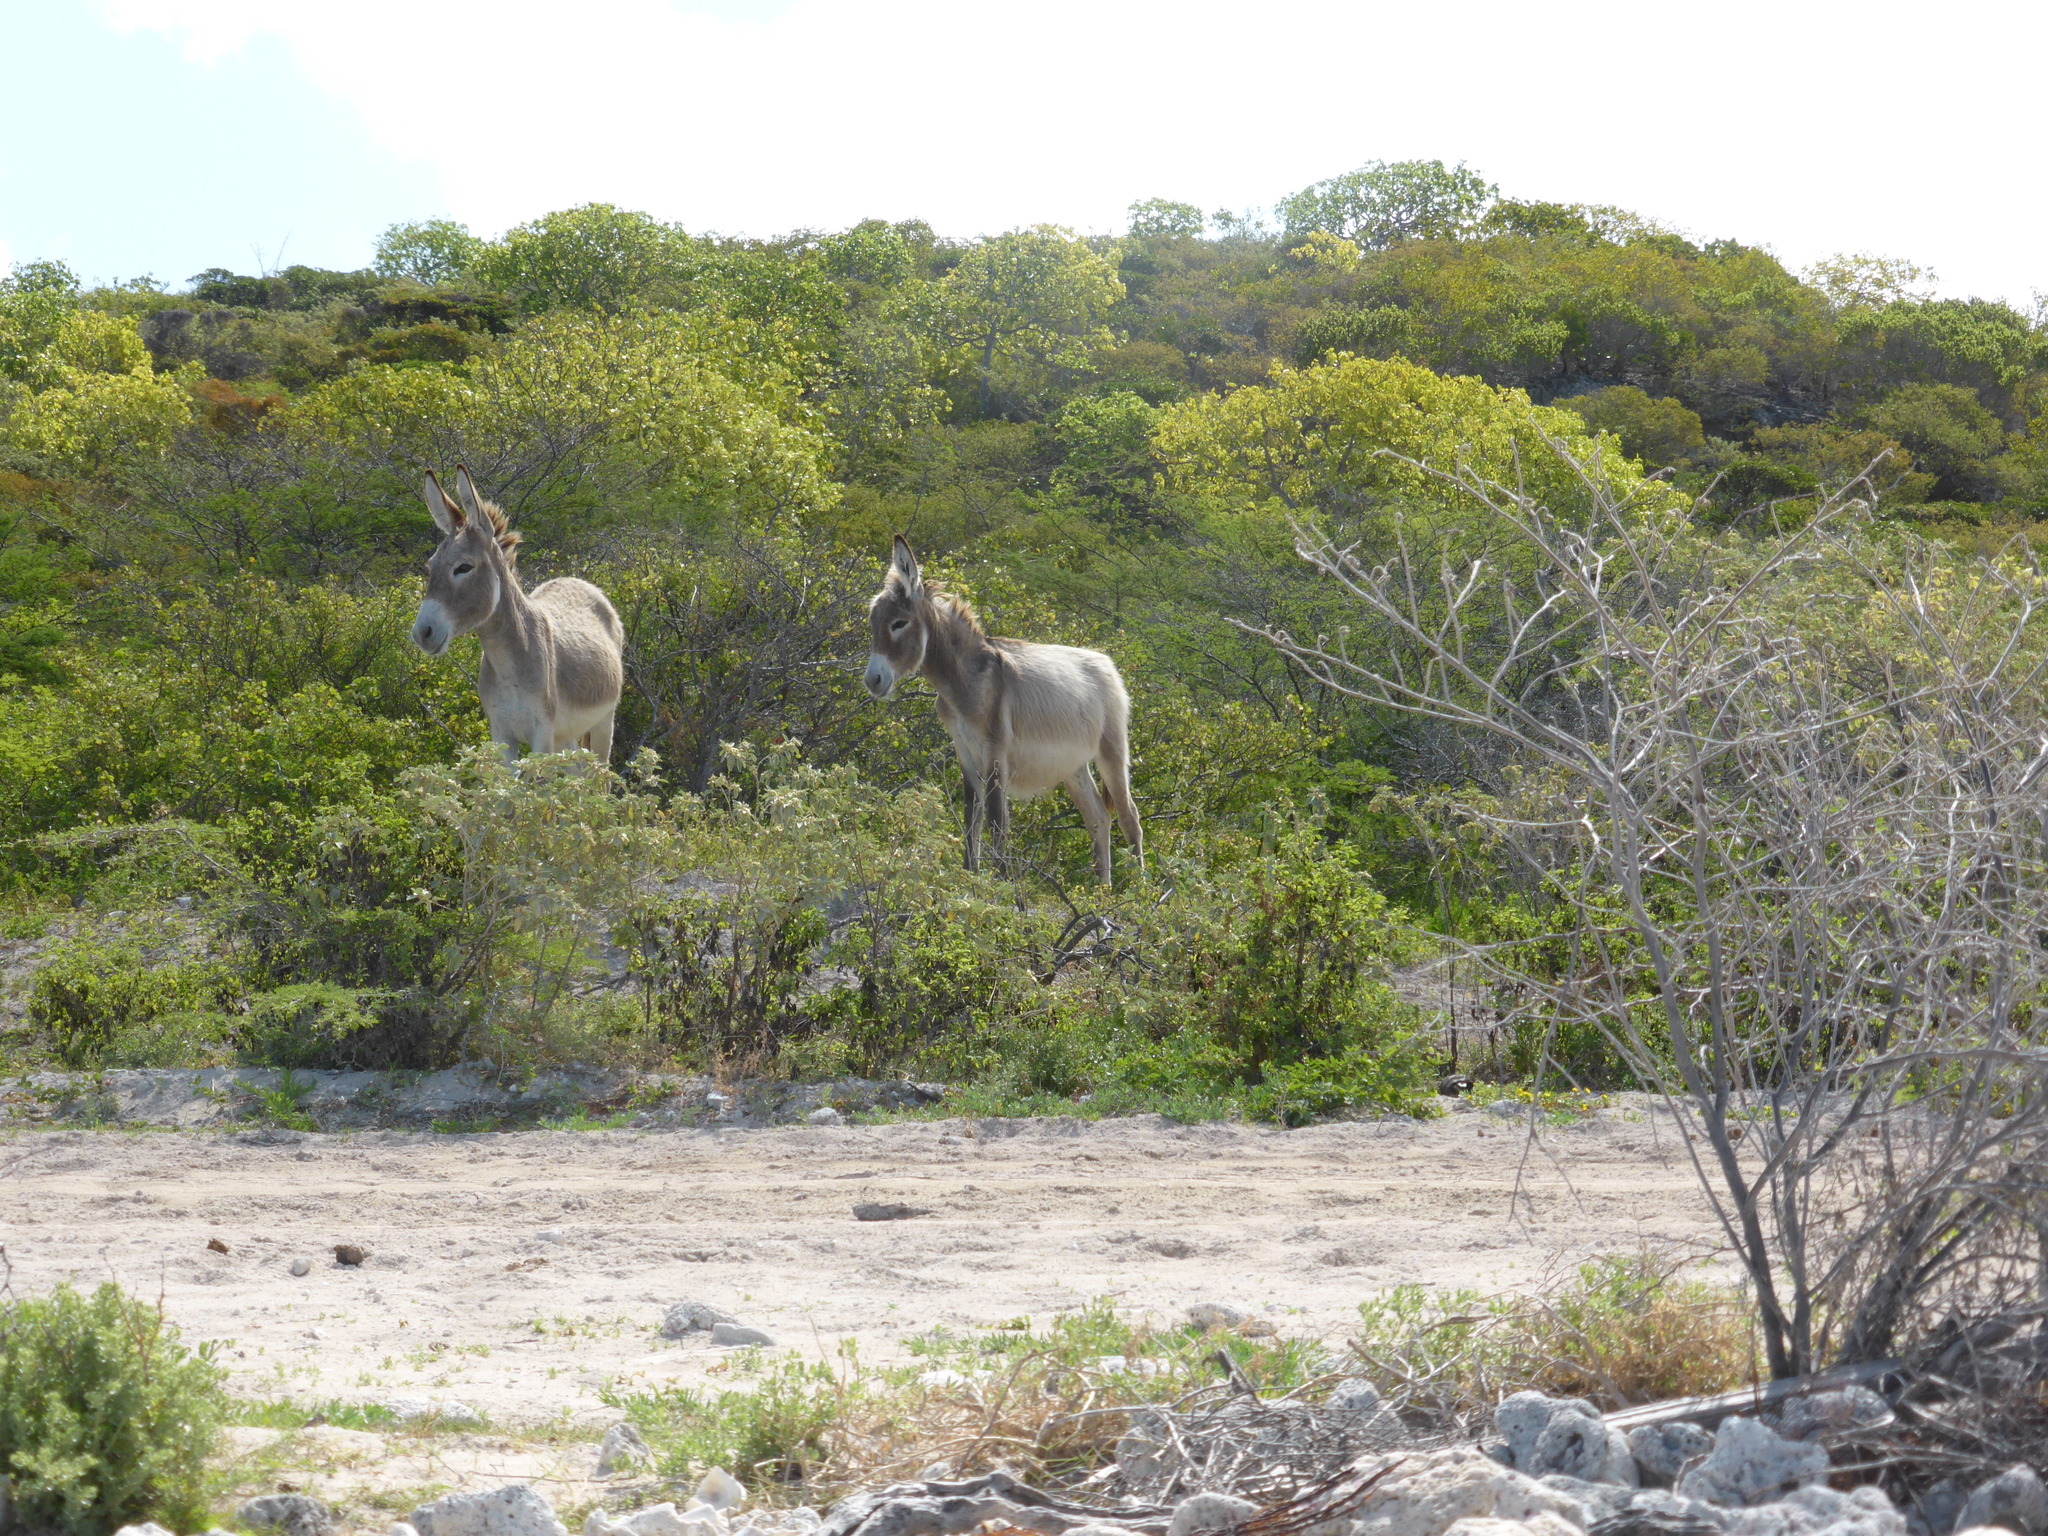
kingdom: Animalia
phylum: Chordata
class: Mammalia
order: Perissodactyla
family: Equidae
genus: Equus
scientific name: Equus asinus
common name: Ass
